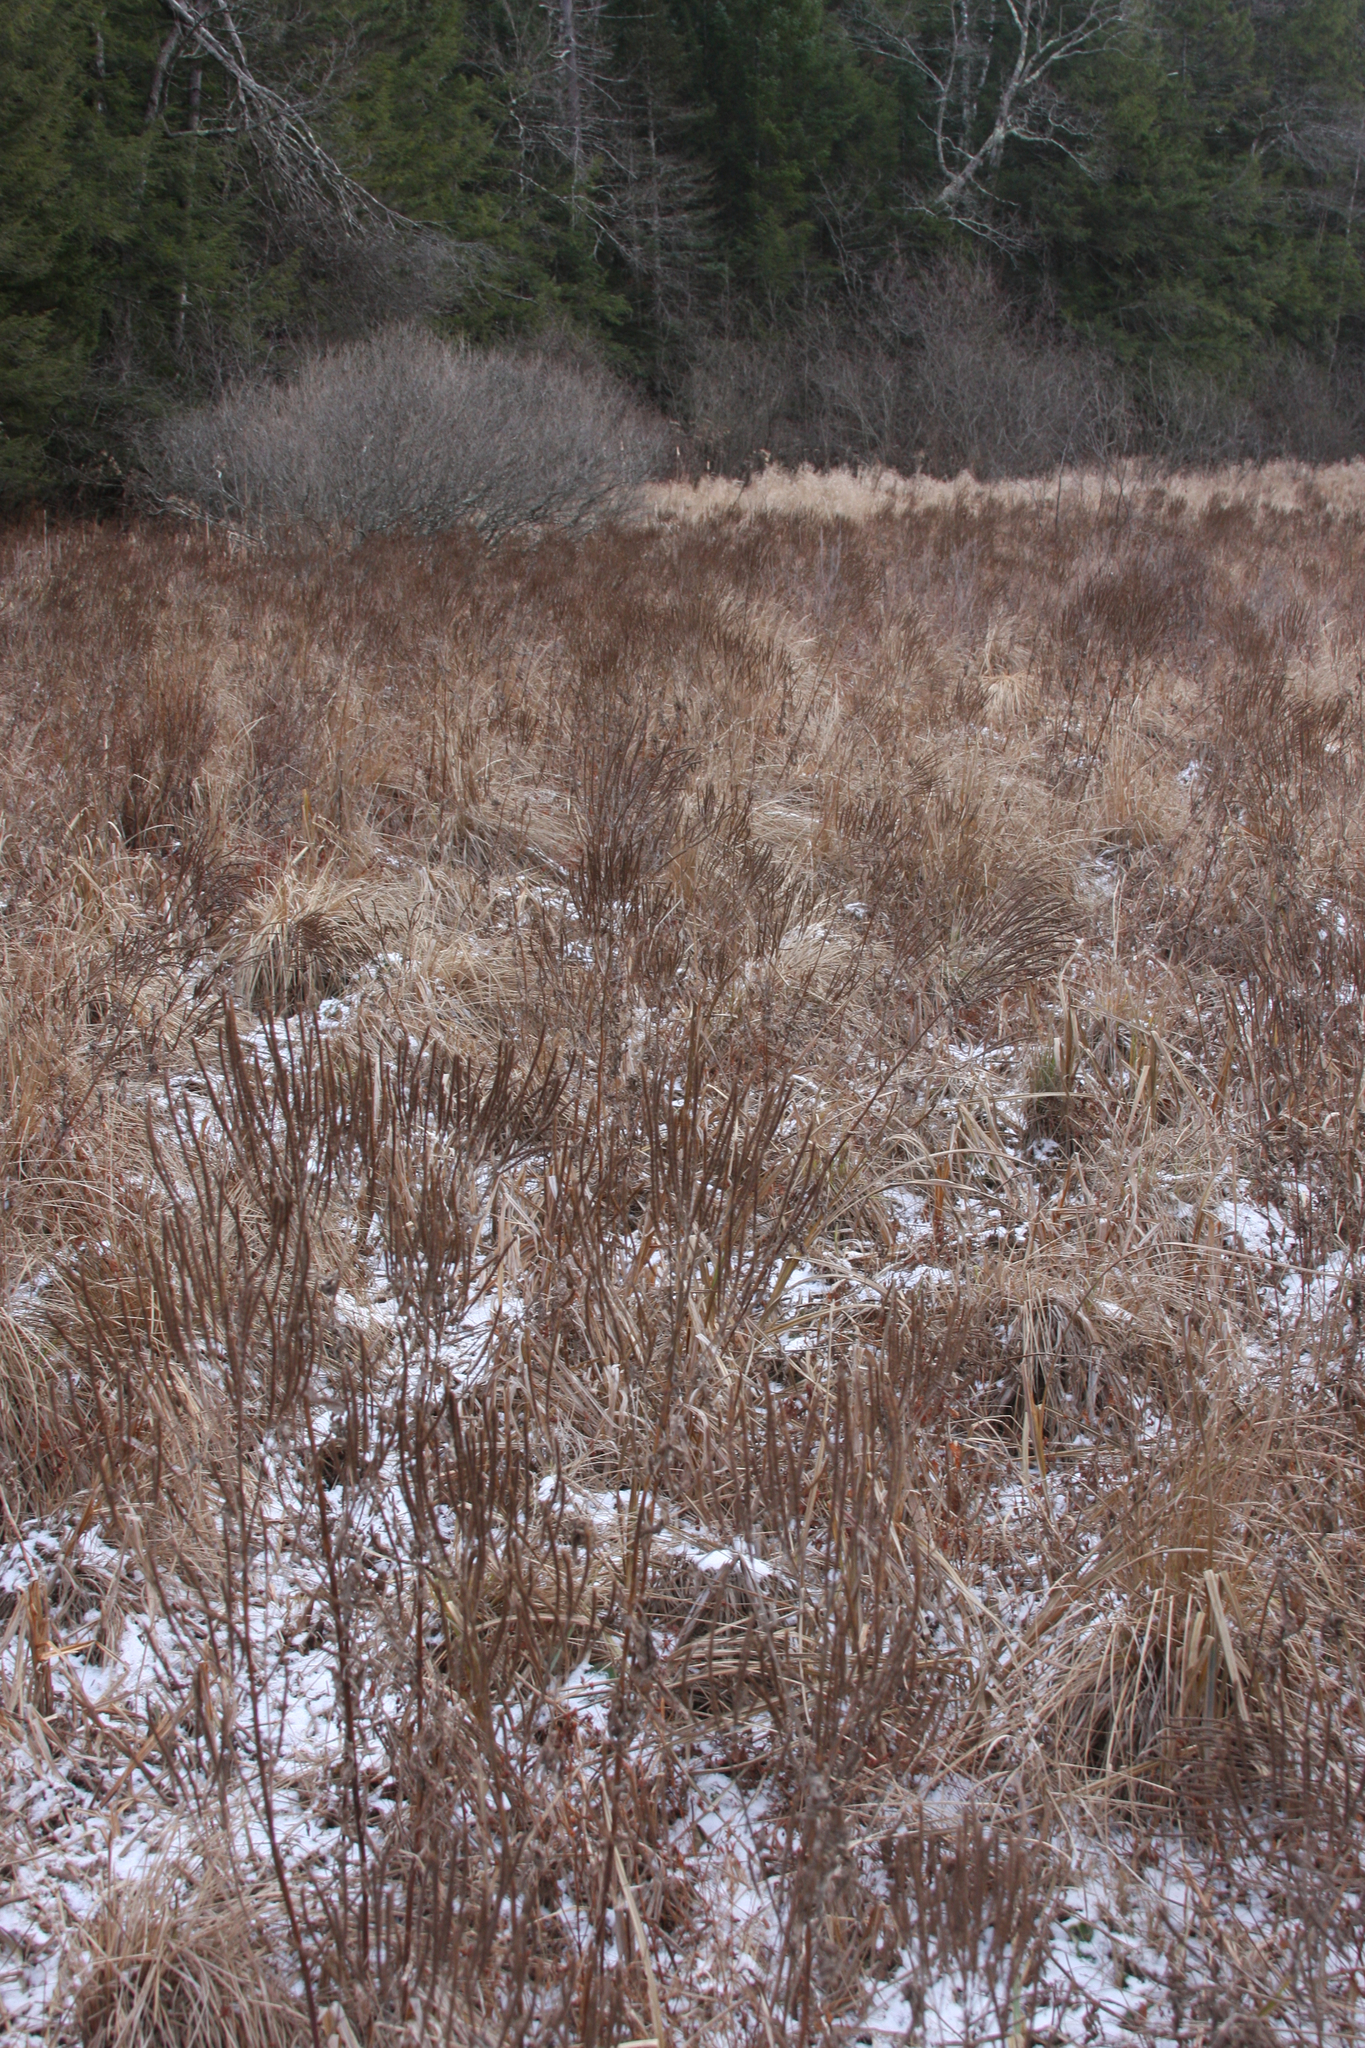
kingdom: Plantae
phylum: Tracheophyta
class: Magnoliopsida
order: Lamiales
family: Verbenaceae
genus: Verbena
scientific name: Verbena hastata
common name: American blue vervain
